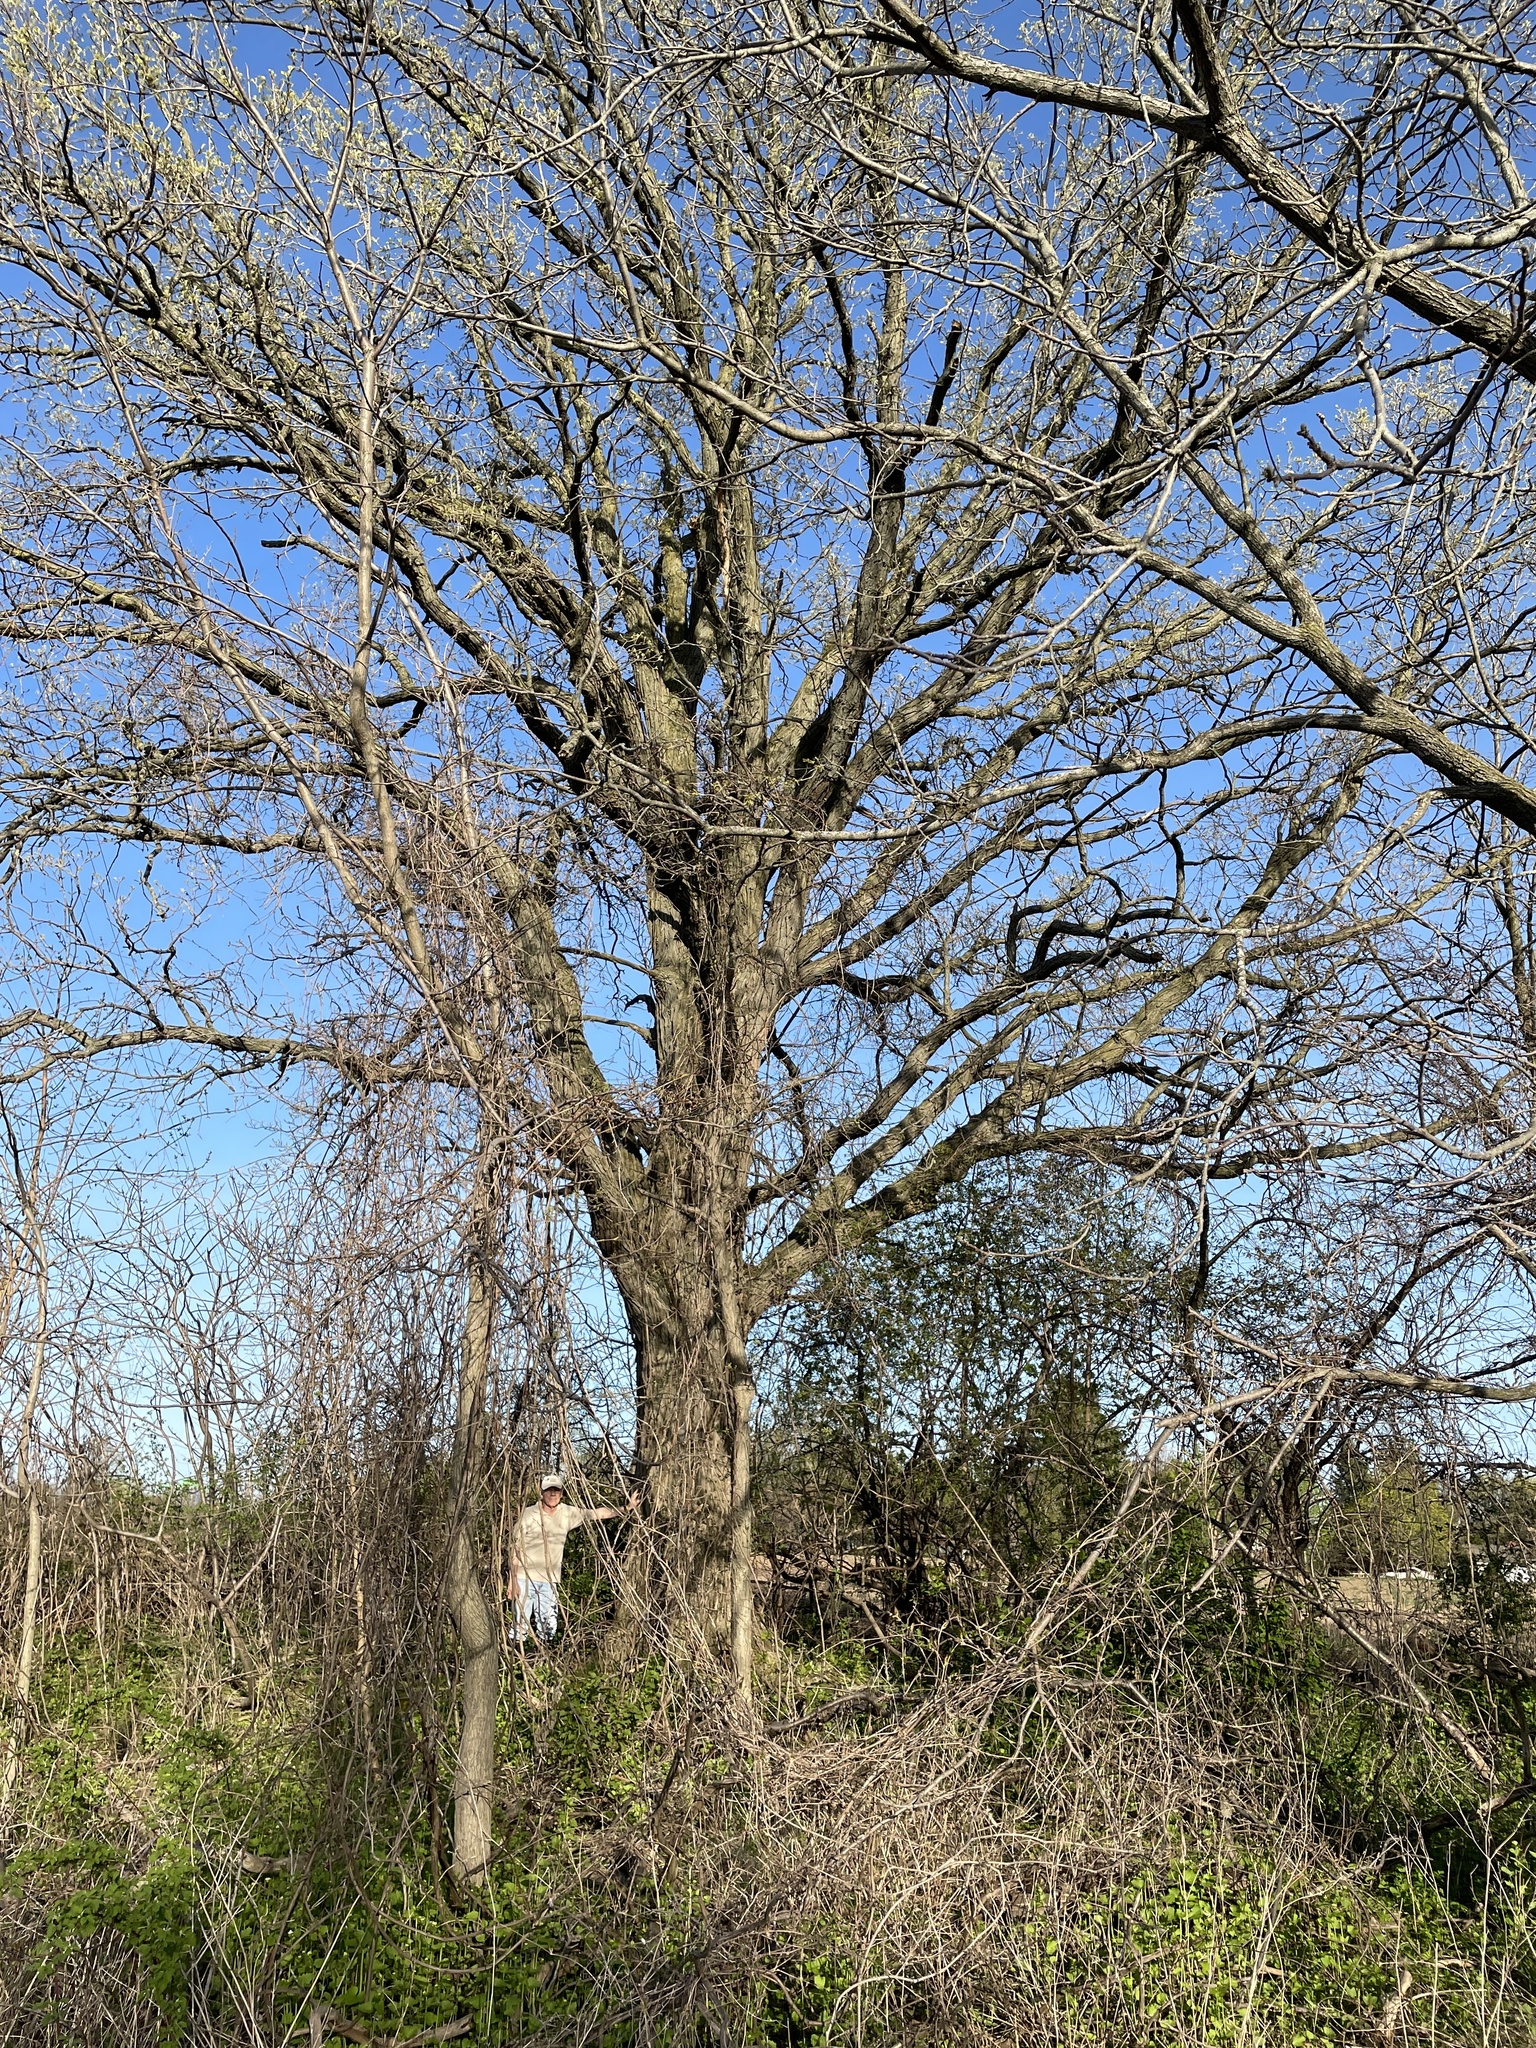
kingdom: Plantae
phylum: Tracheophyta
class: Magnoliopsida
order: Fagales
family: Fagaceae
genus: Quercus
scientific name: Quercus bicolor
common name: Swamp white oak
